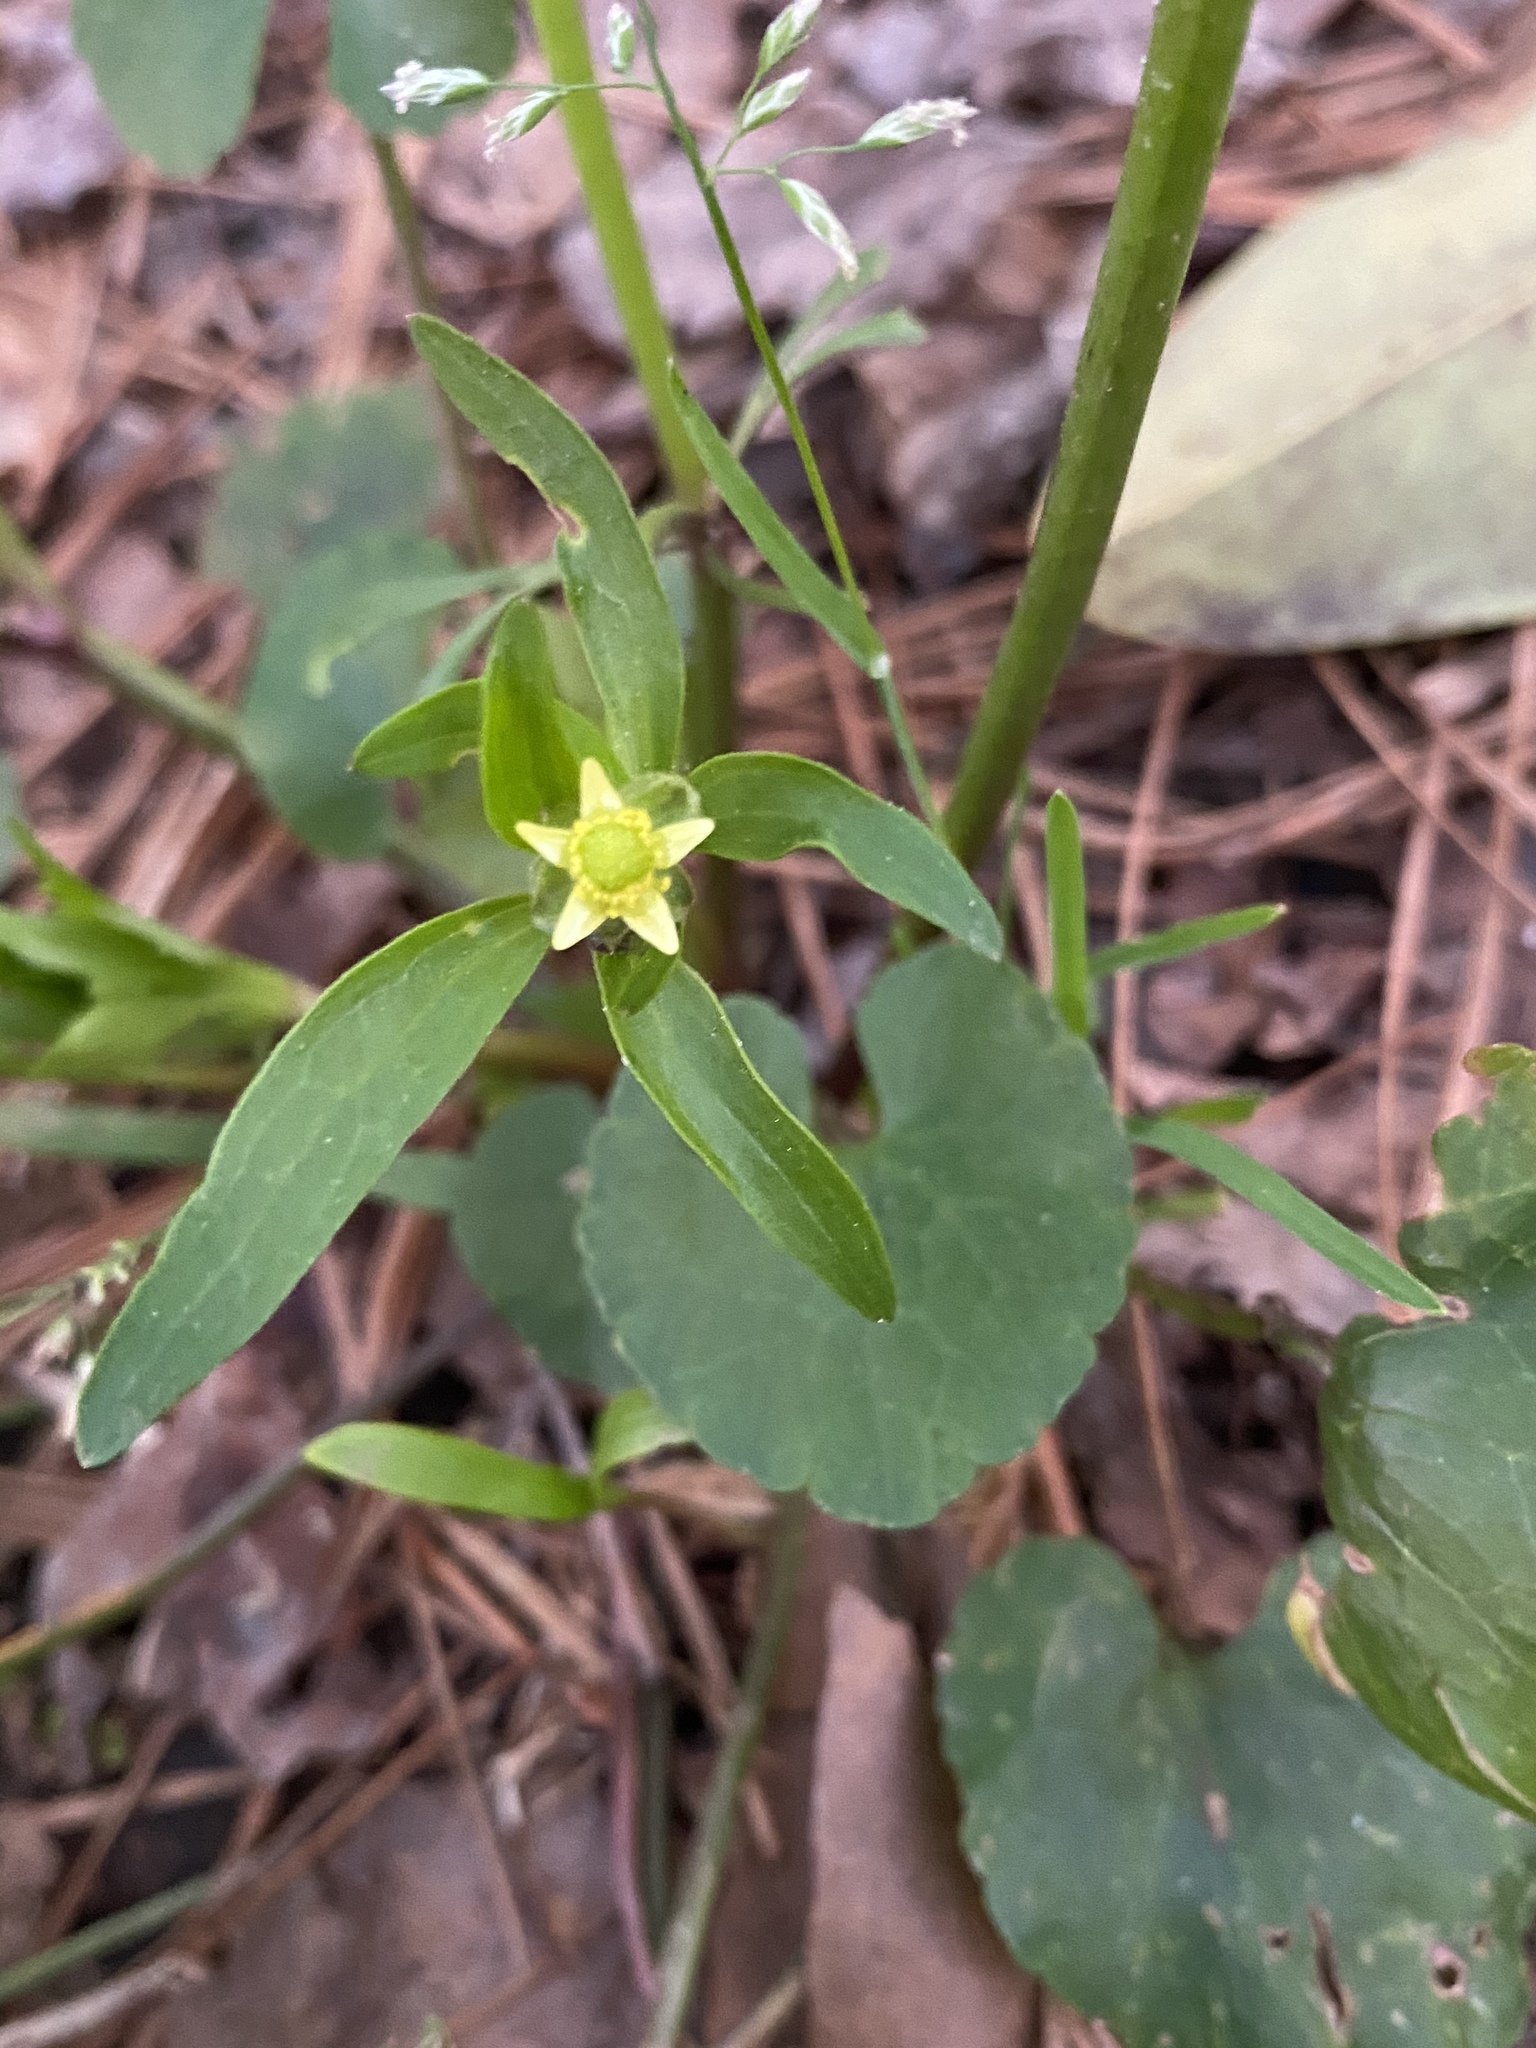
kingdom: Plantae
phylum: Tracheophyta
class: Magnoliopsida
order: Ranunculales
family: Ranunculaceae
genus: Ranunculus
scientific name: Ranunculus abortivus
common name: Early wood buttercup
